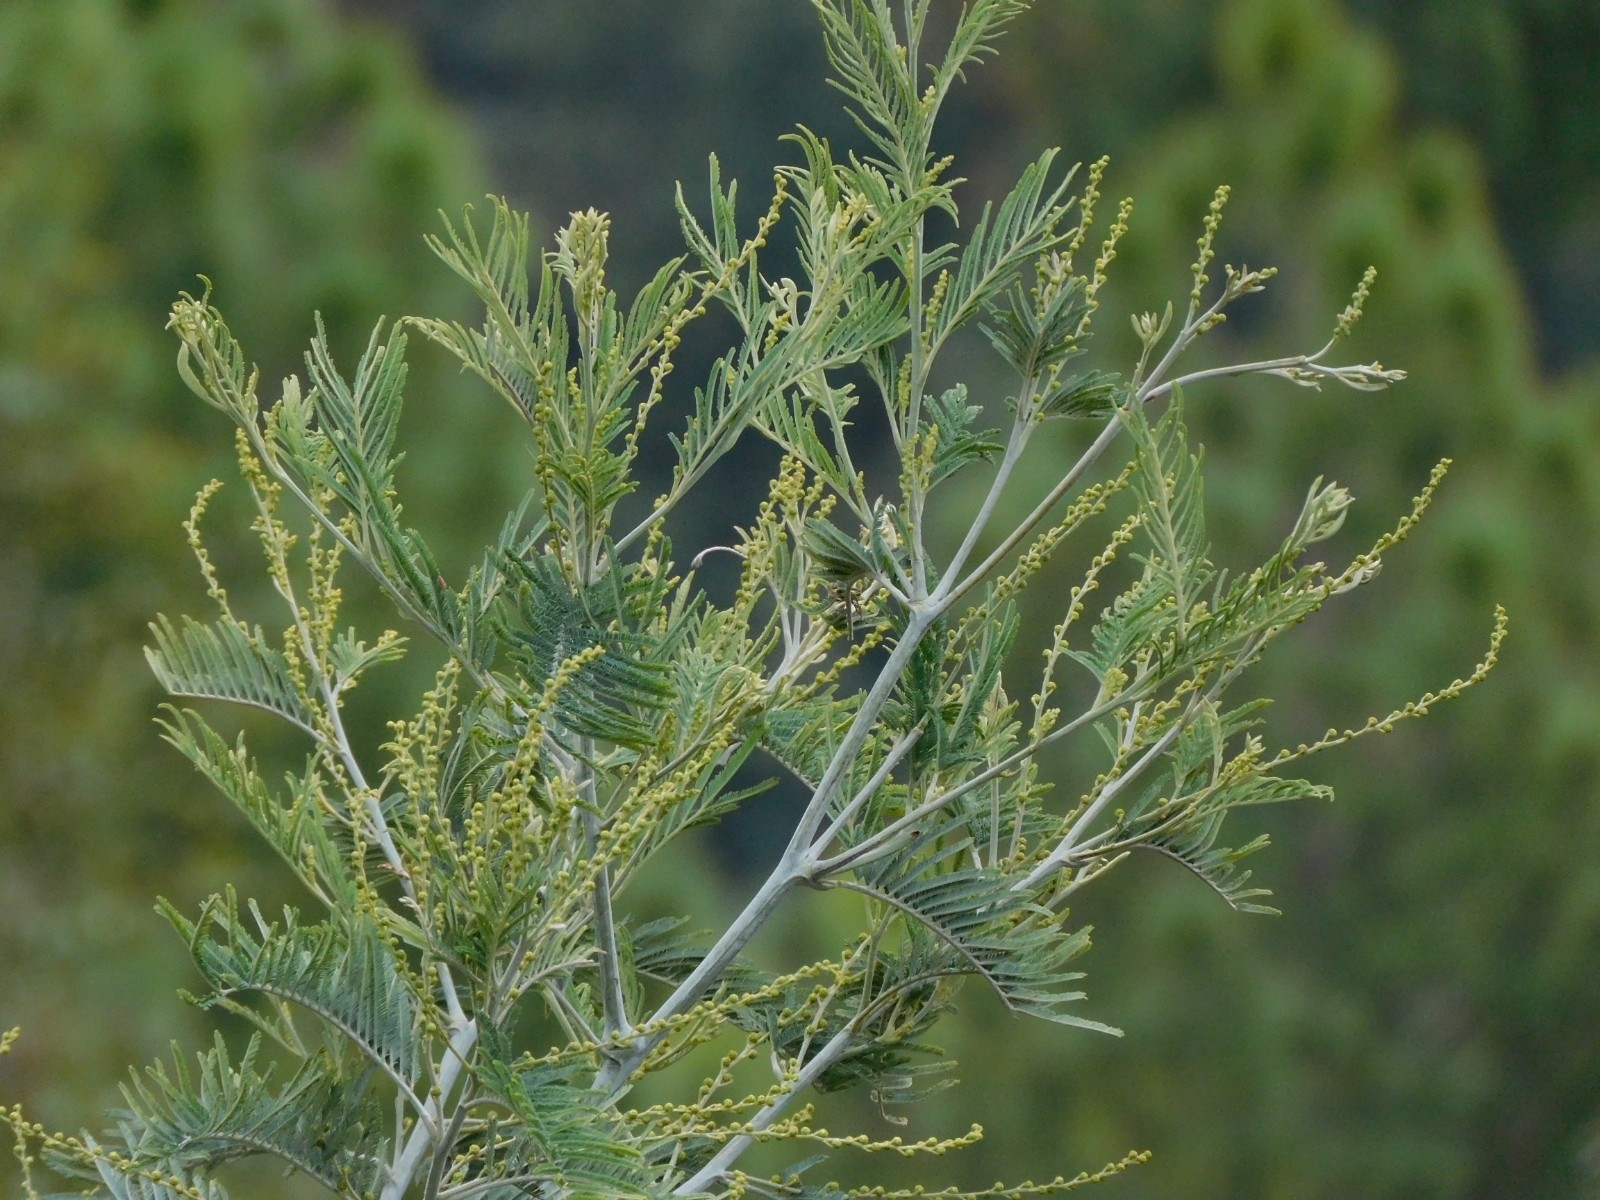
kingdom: Plantae
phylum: Tracheophyta
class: Magnoliopsida
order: Fabales
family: Fabaceae
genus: Acacia
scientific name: Acacia dealbata
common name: Silver wattle
